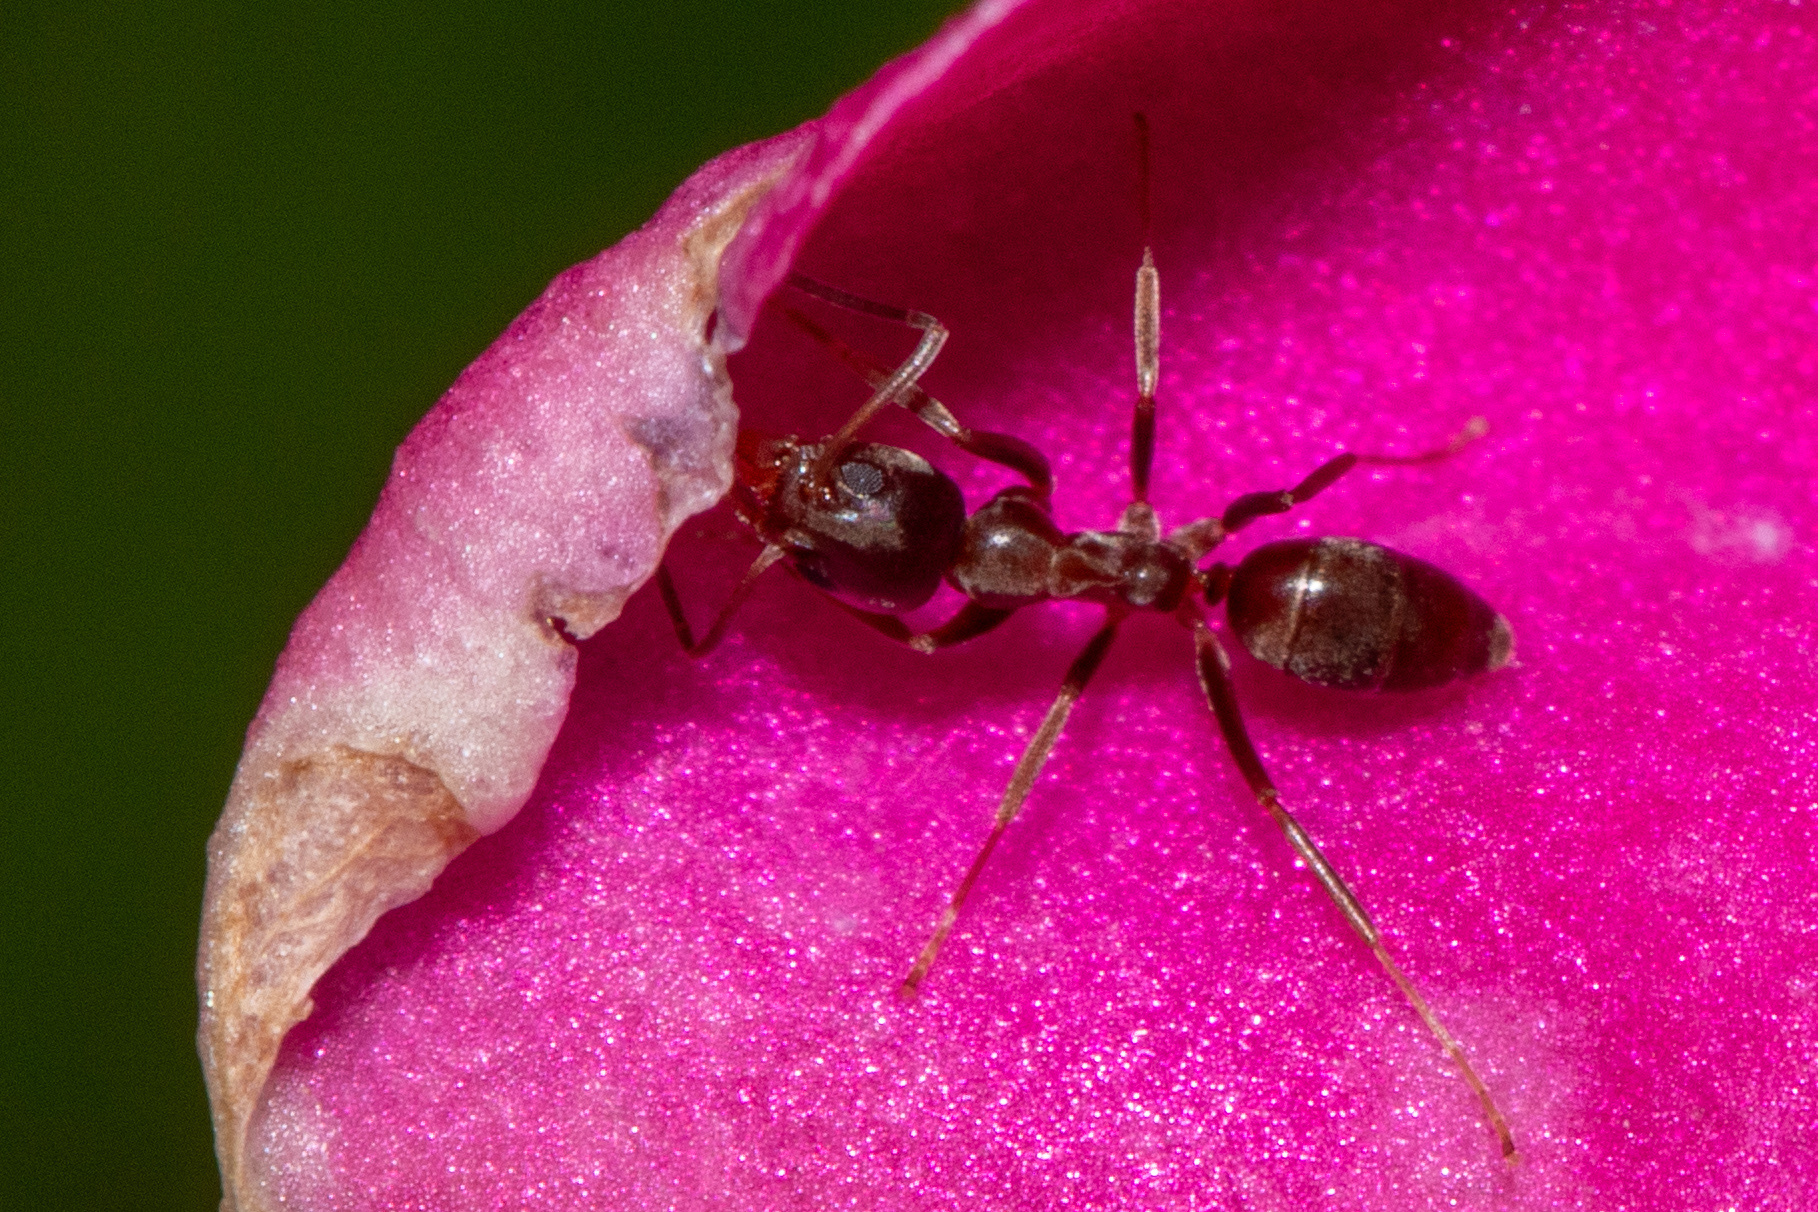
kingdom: Animalia
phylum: Arthropoda
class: Insecta
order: Hymenoptera
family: Formicidae
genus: Linepithema
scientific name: Linepithema humile
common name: Argentine ant
